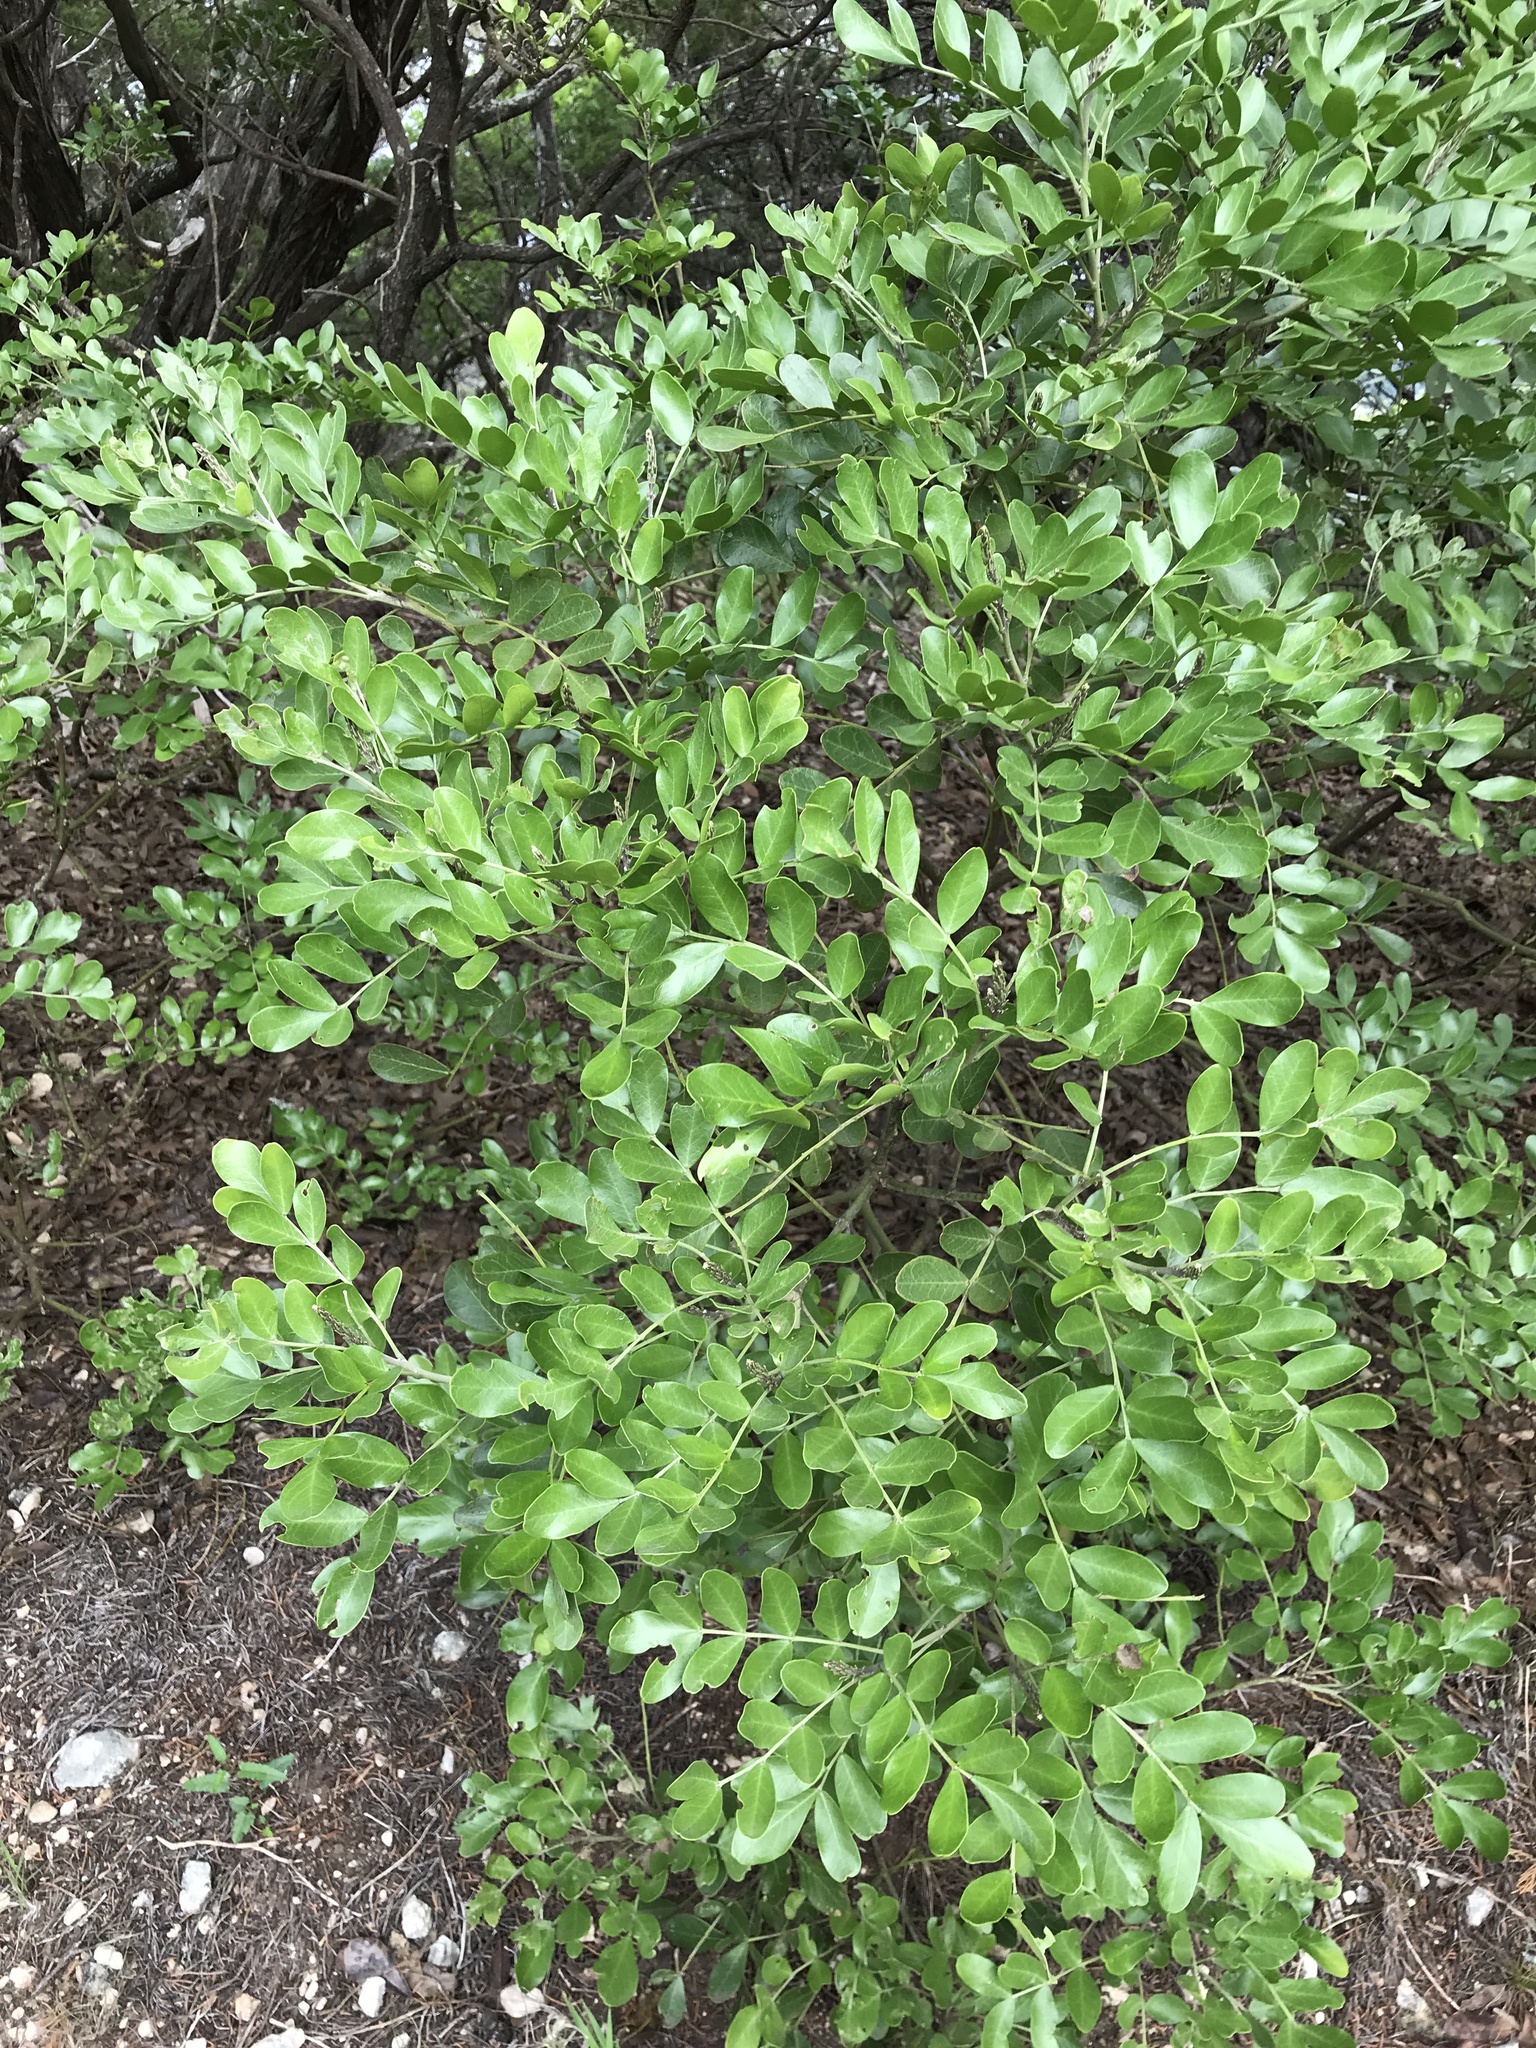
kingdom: Plantae
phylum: Tracheophyta
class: Magnoliopsida
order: Fabales
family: Fabaceae
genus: Dermatophyllum
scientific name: Dermatophyllum secundiflorum
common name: Texas-mountain-laurel
